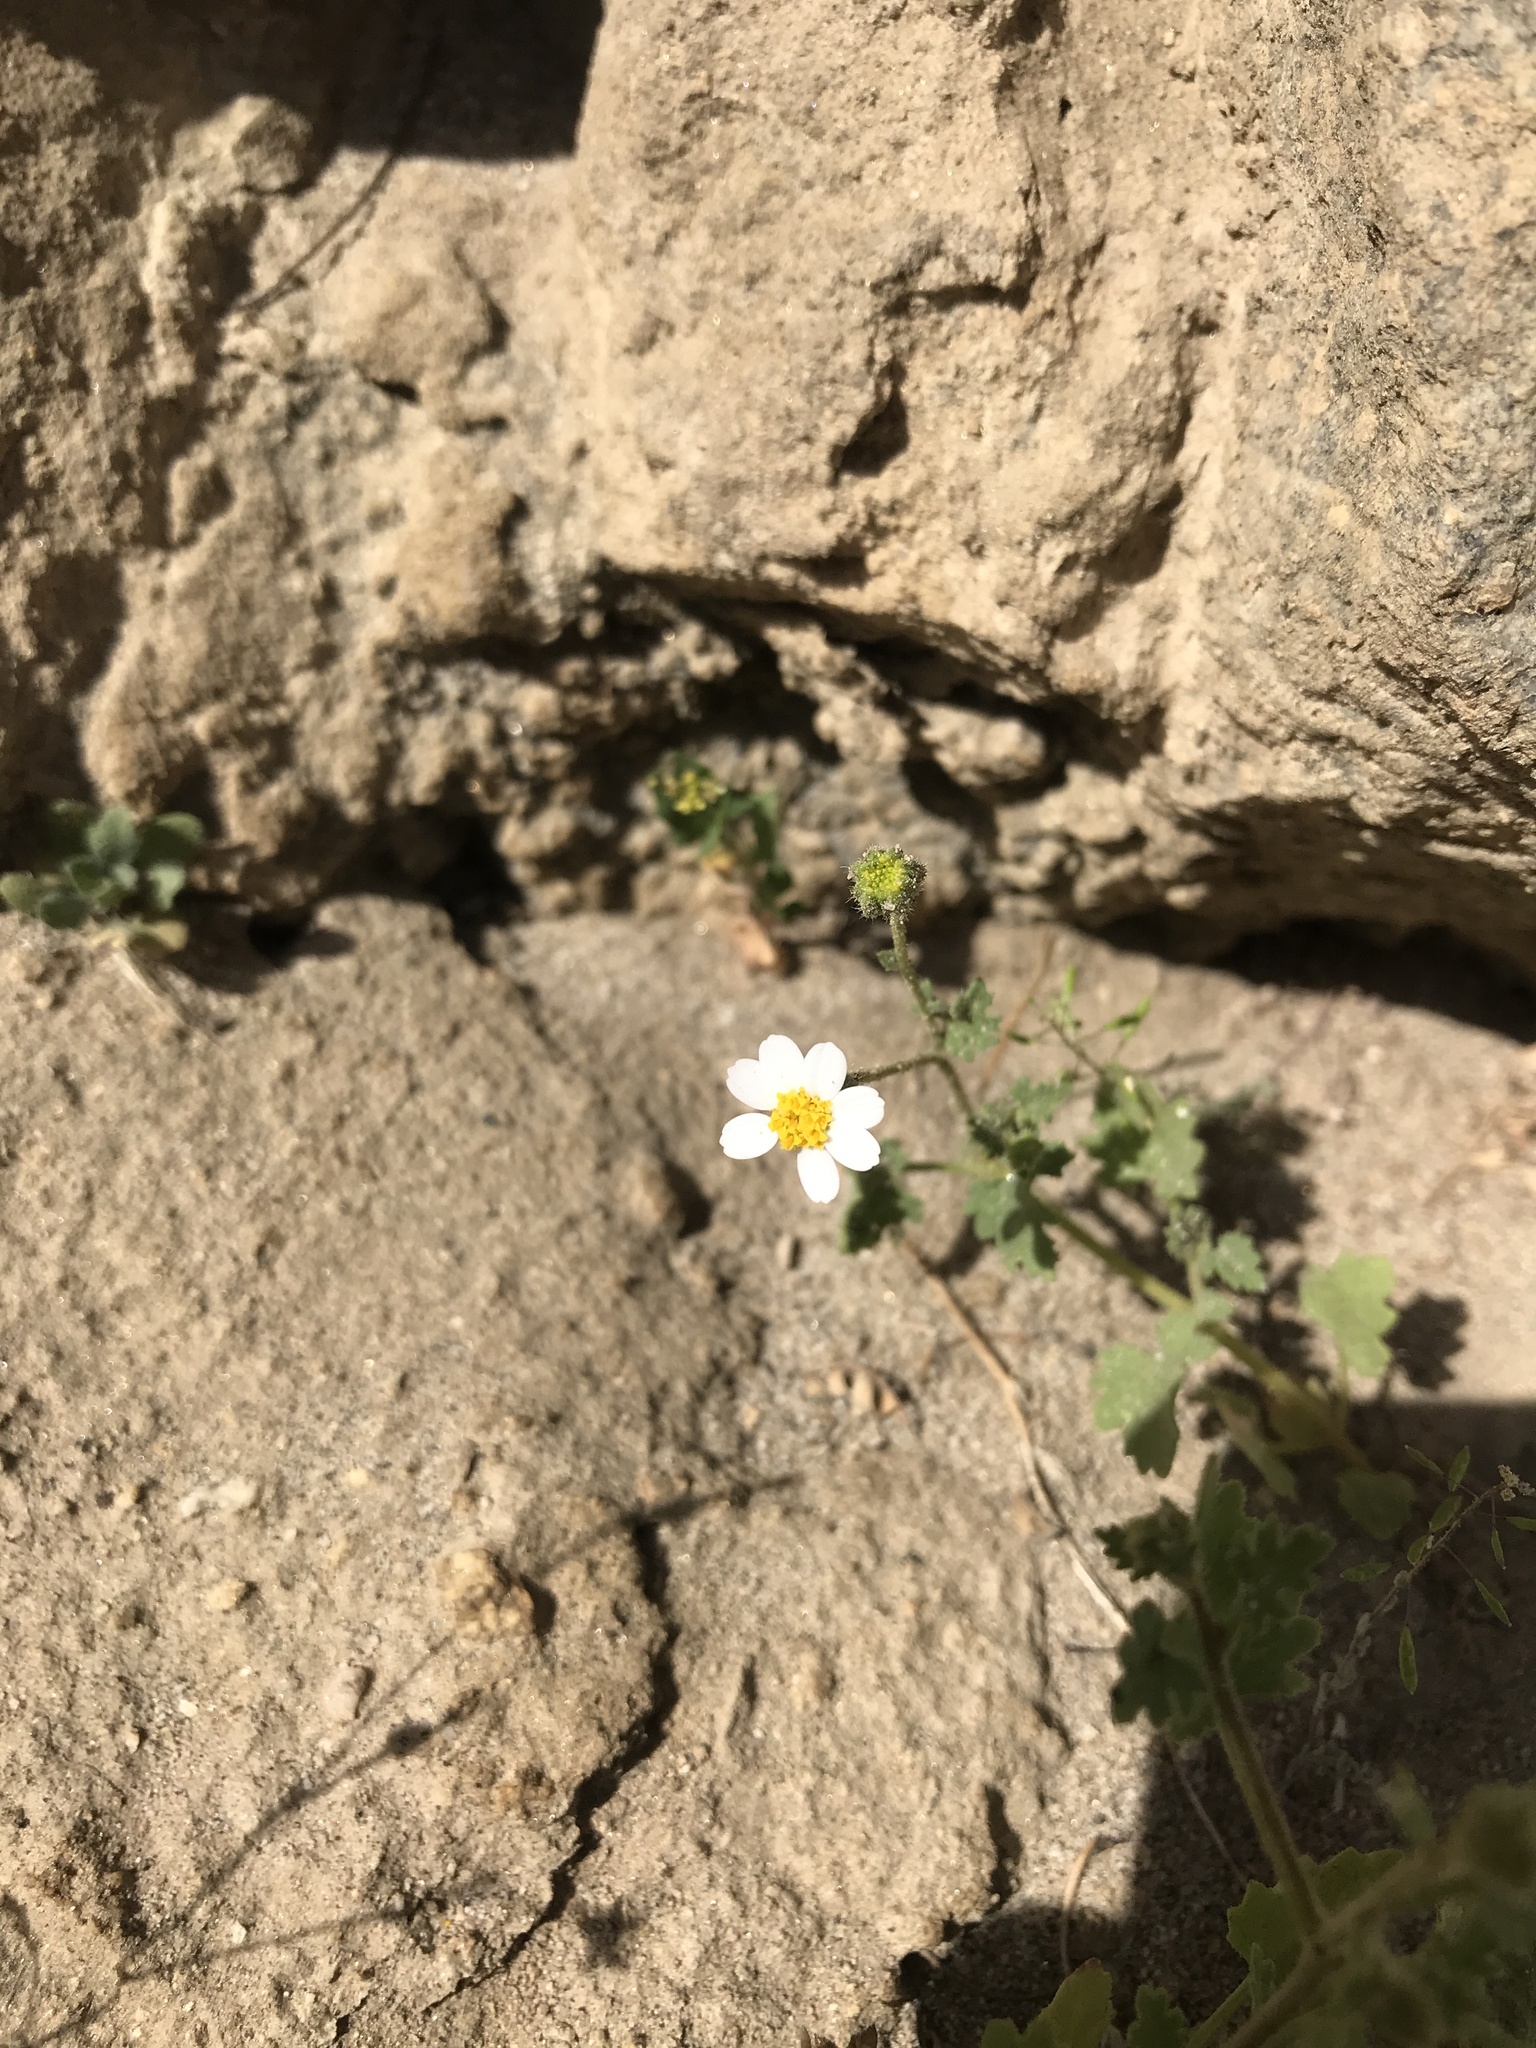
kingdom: Plantae
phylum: Tracheophyta
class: Magnoliopsida
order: Asterales
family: Asteraceae
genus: Laphamia
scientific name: Laphamia emoryi
